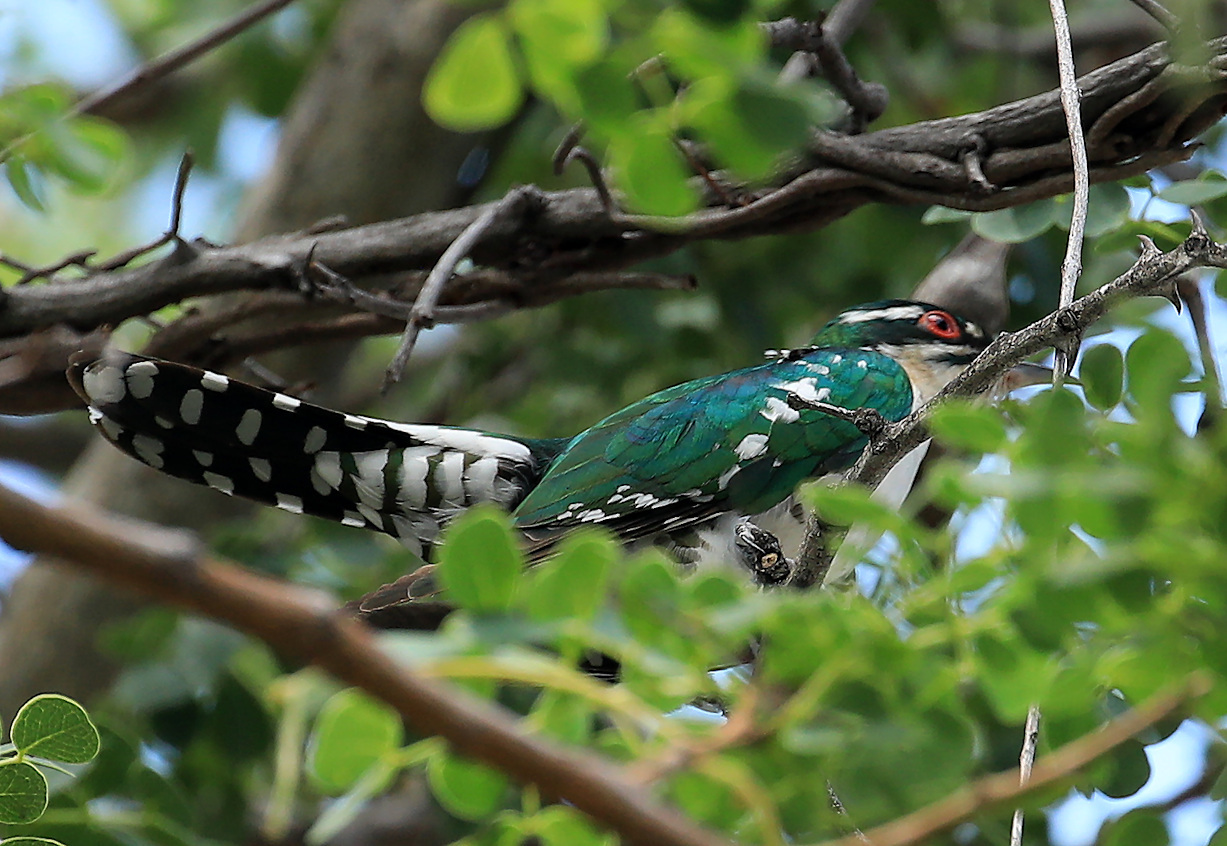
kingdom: Animalia
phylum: Chordata
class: Aves
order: Cuculiformes
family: Cuculidae
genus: Chrysococcyx
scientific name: Chrysococcyx caprius
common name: Diederik cuckoo
